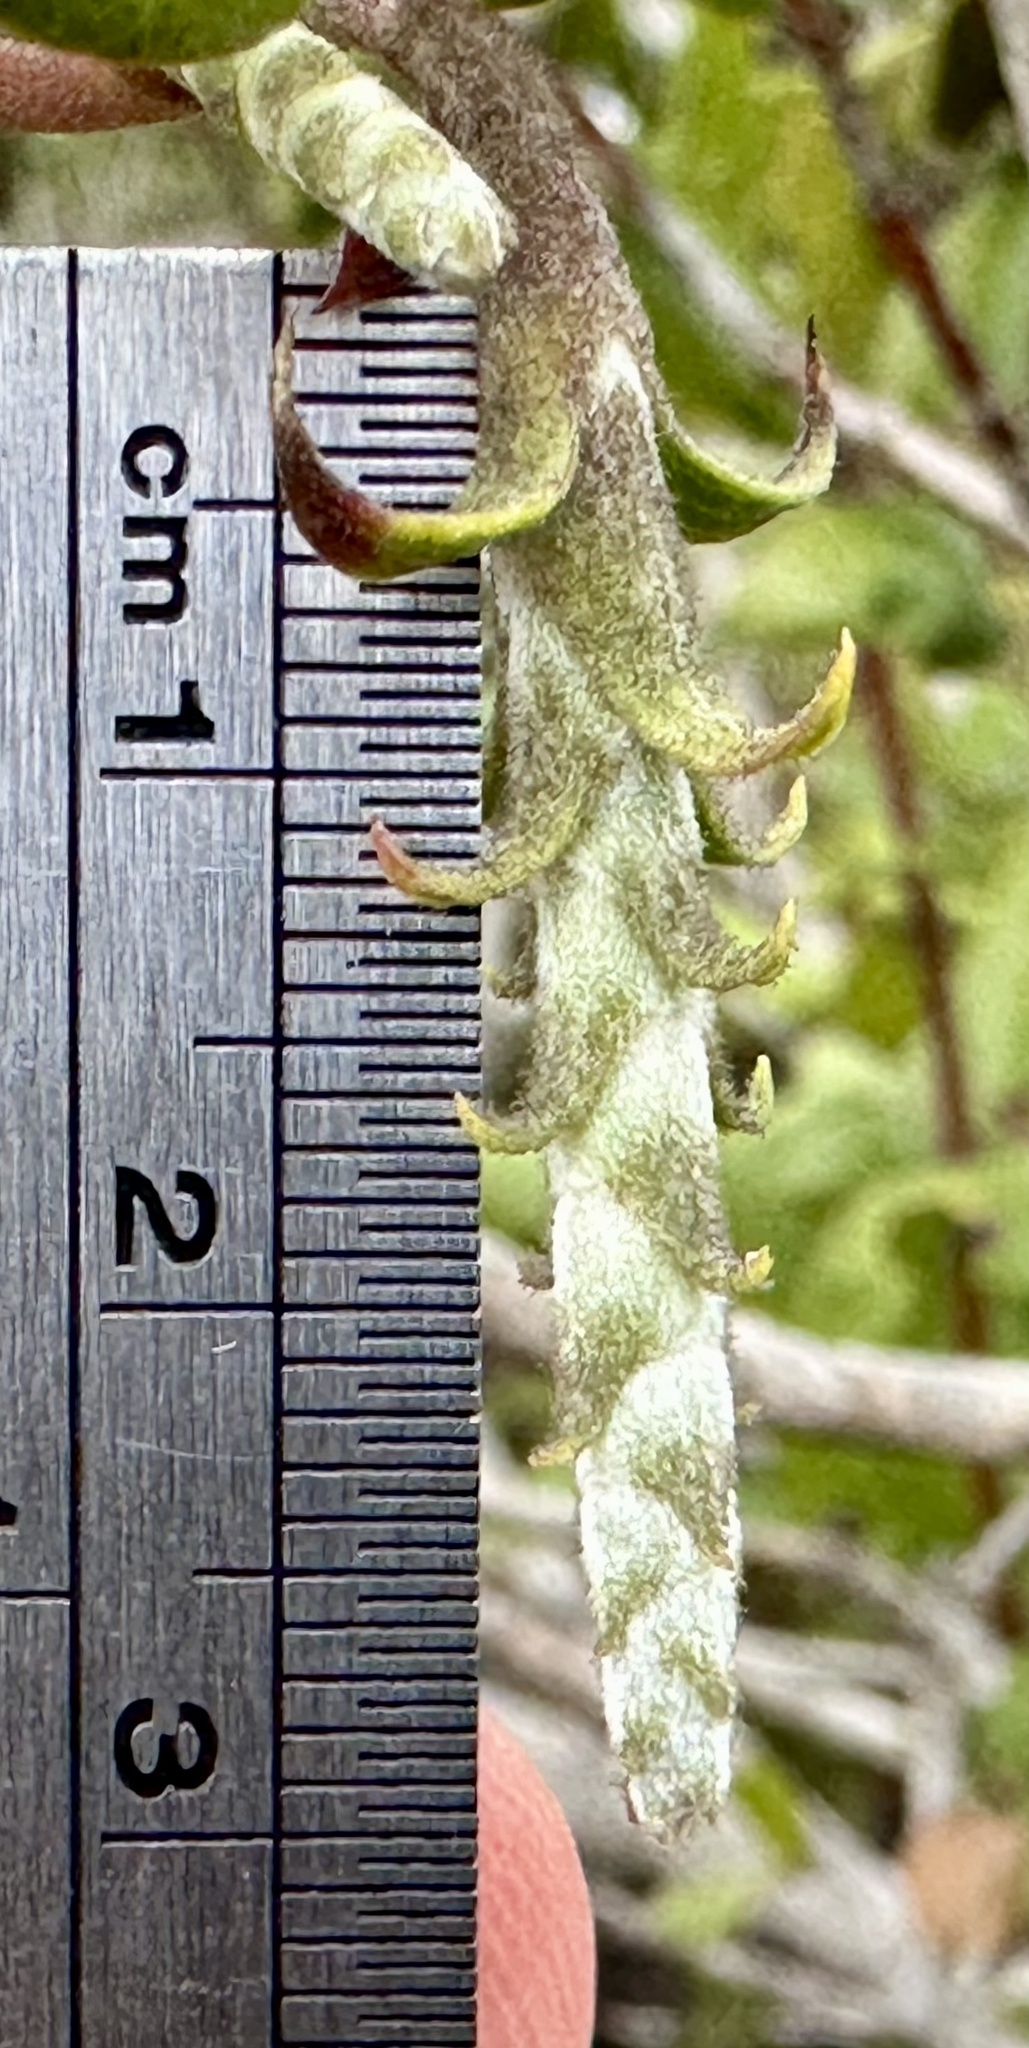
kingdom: Plantae
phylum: Tracheophyta
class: Magnoliopsida
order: Garryales
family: Garryaceae
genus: Garrya
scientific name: Garrya elliptica
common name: Silk-tassel
